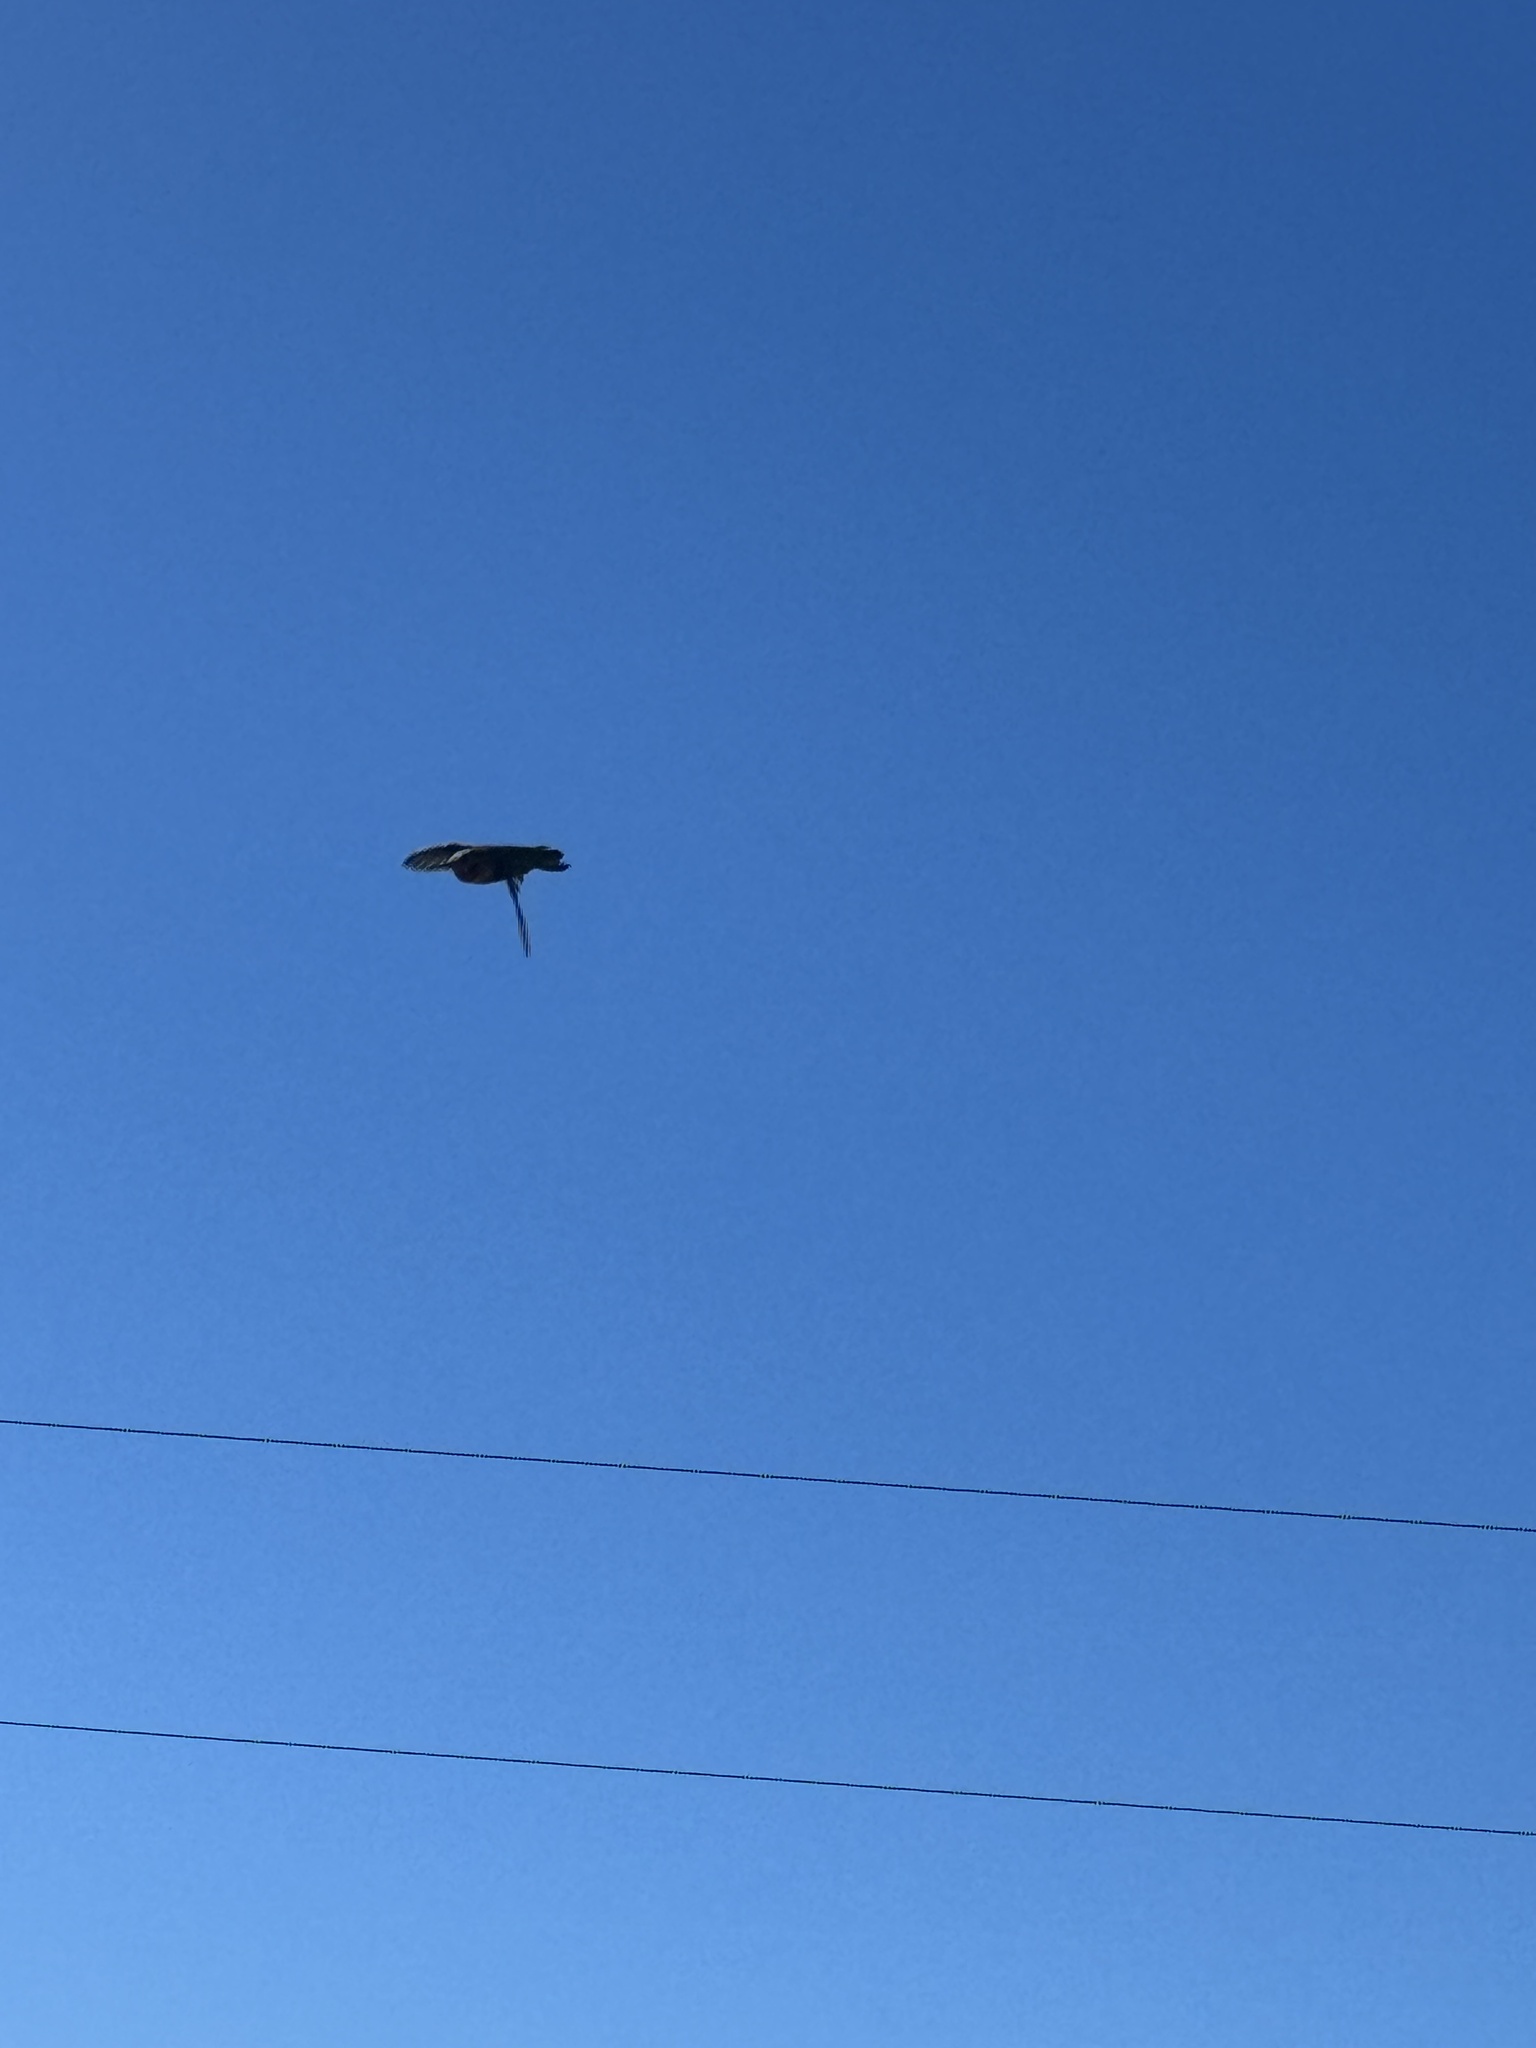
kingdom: Animalia
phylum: Chordata
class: Aves
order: Apodiformes
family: Trochilidae
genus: Calypte
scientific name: Calypte anna
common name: Anna's hummingbird
